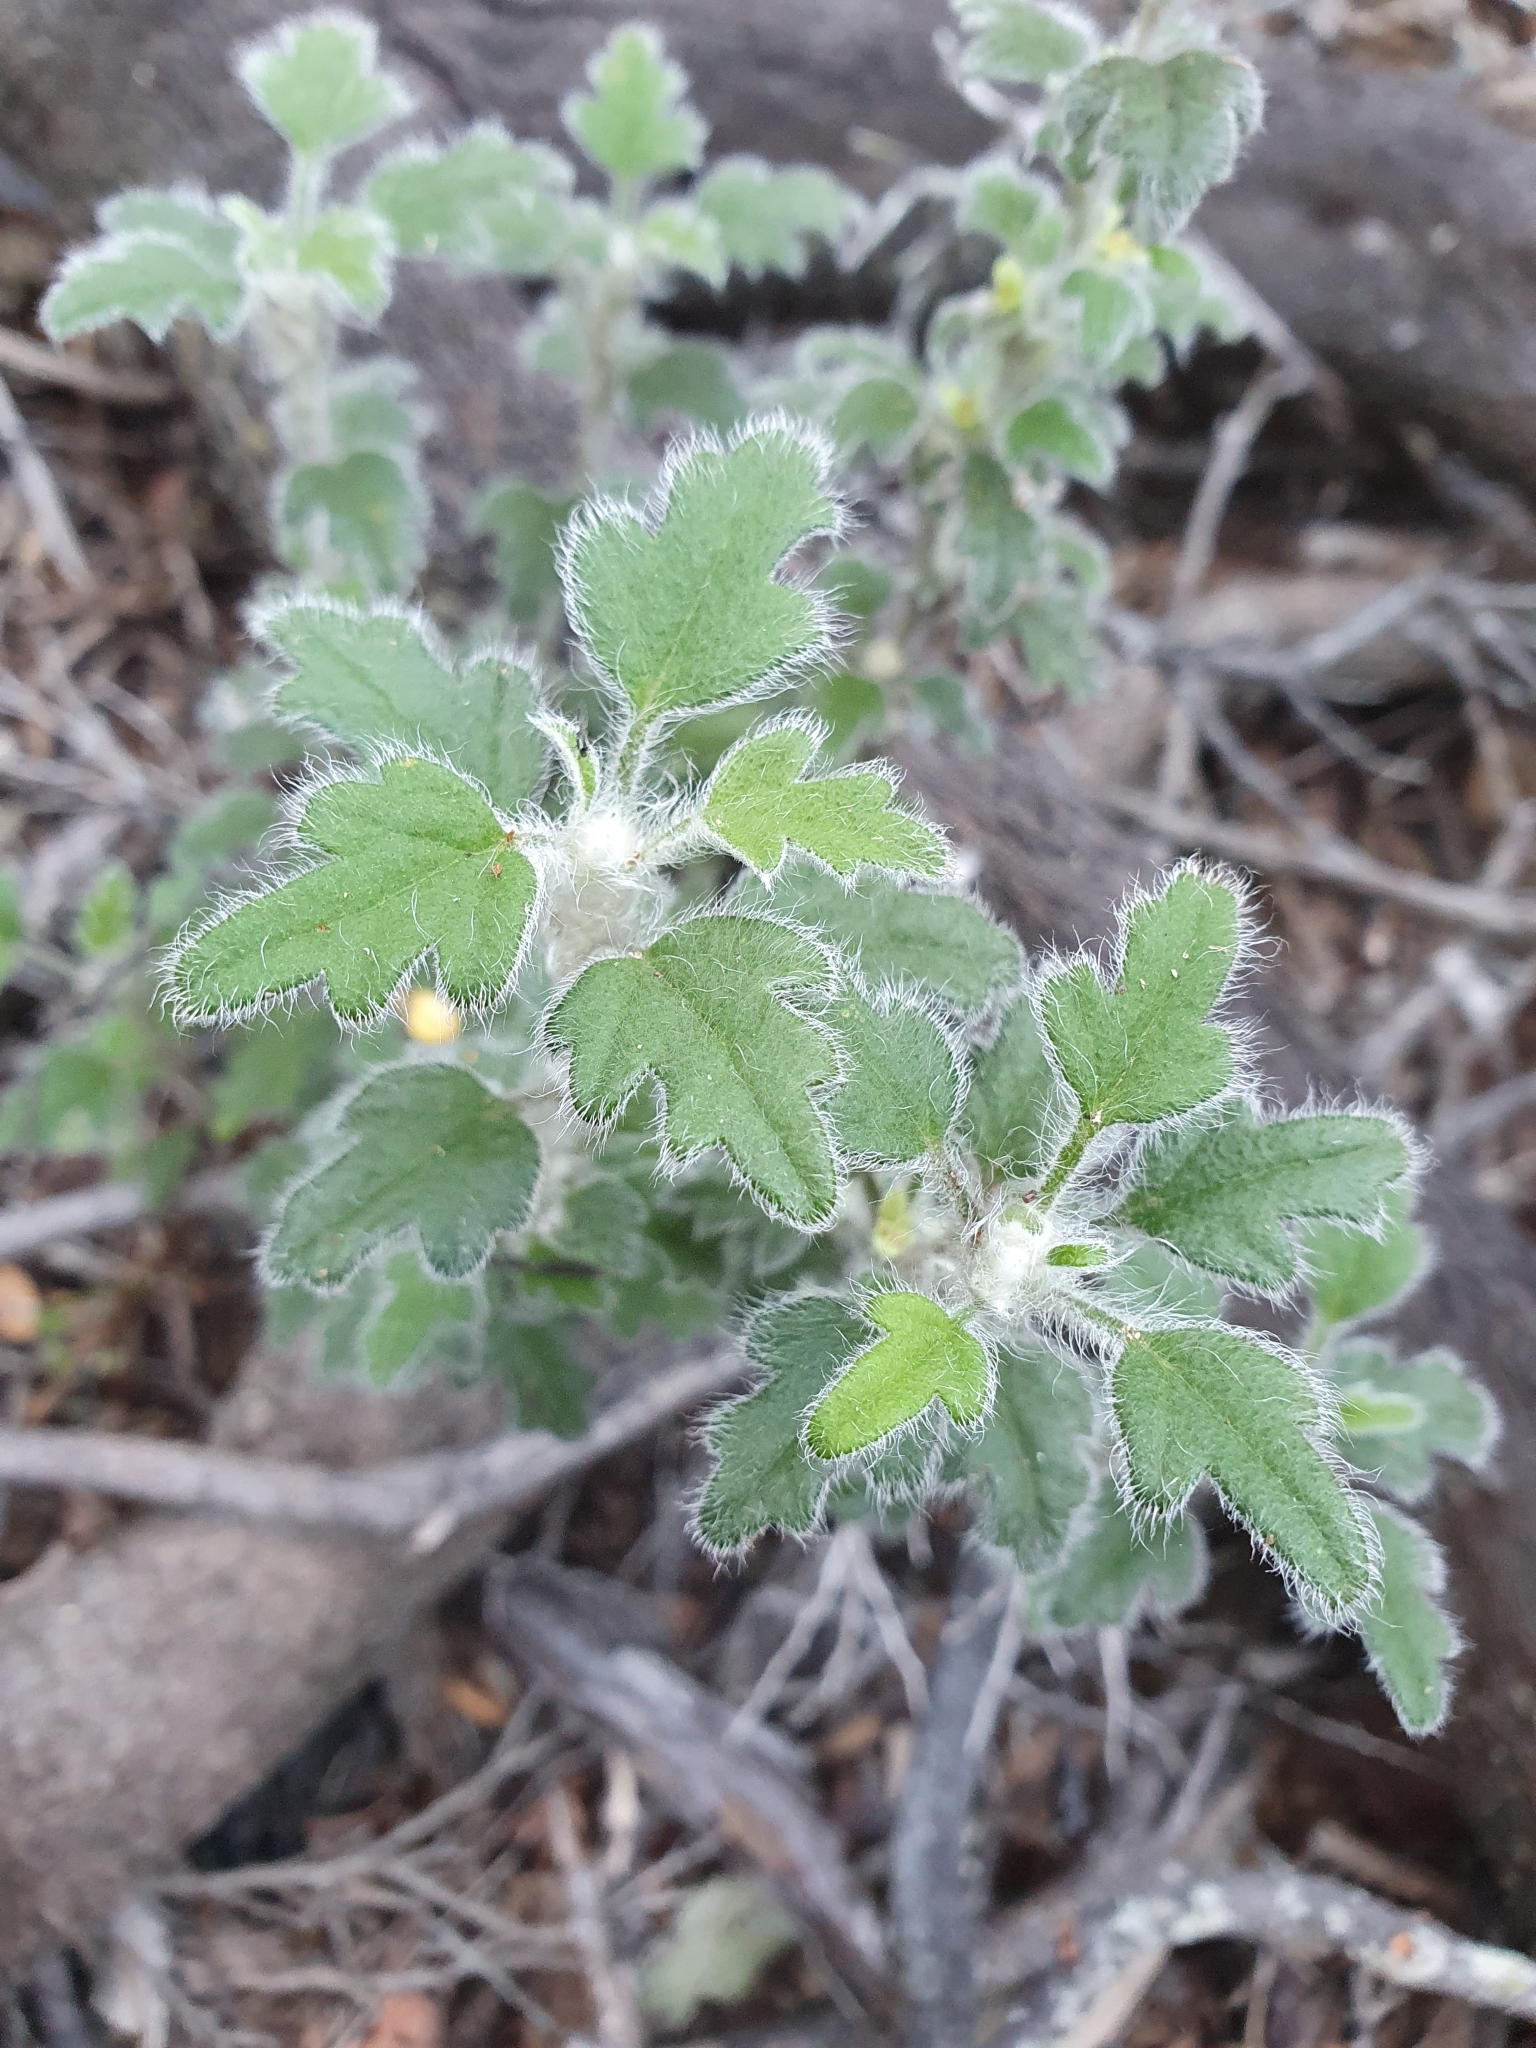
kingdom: Plantae
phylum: Tracheophyta
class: Magnoliopsida
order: Apiales
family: Apiaceae
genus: Xanthosia
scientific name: Xanthosia pilosa
